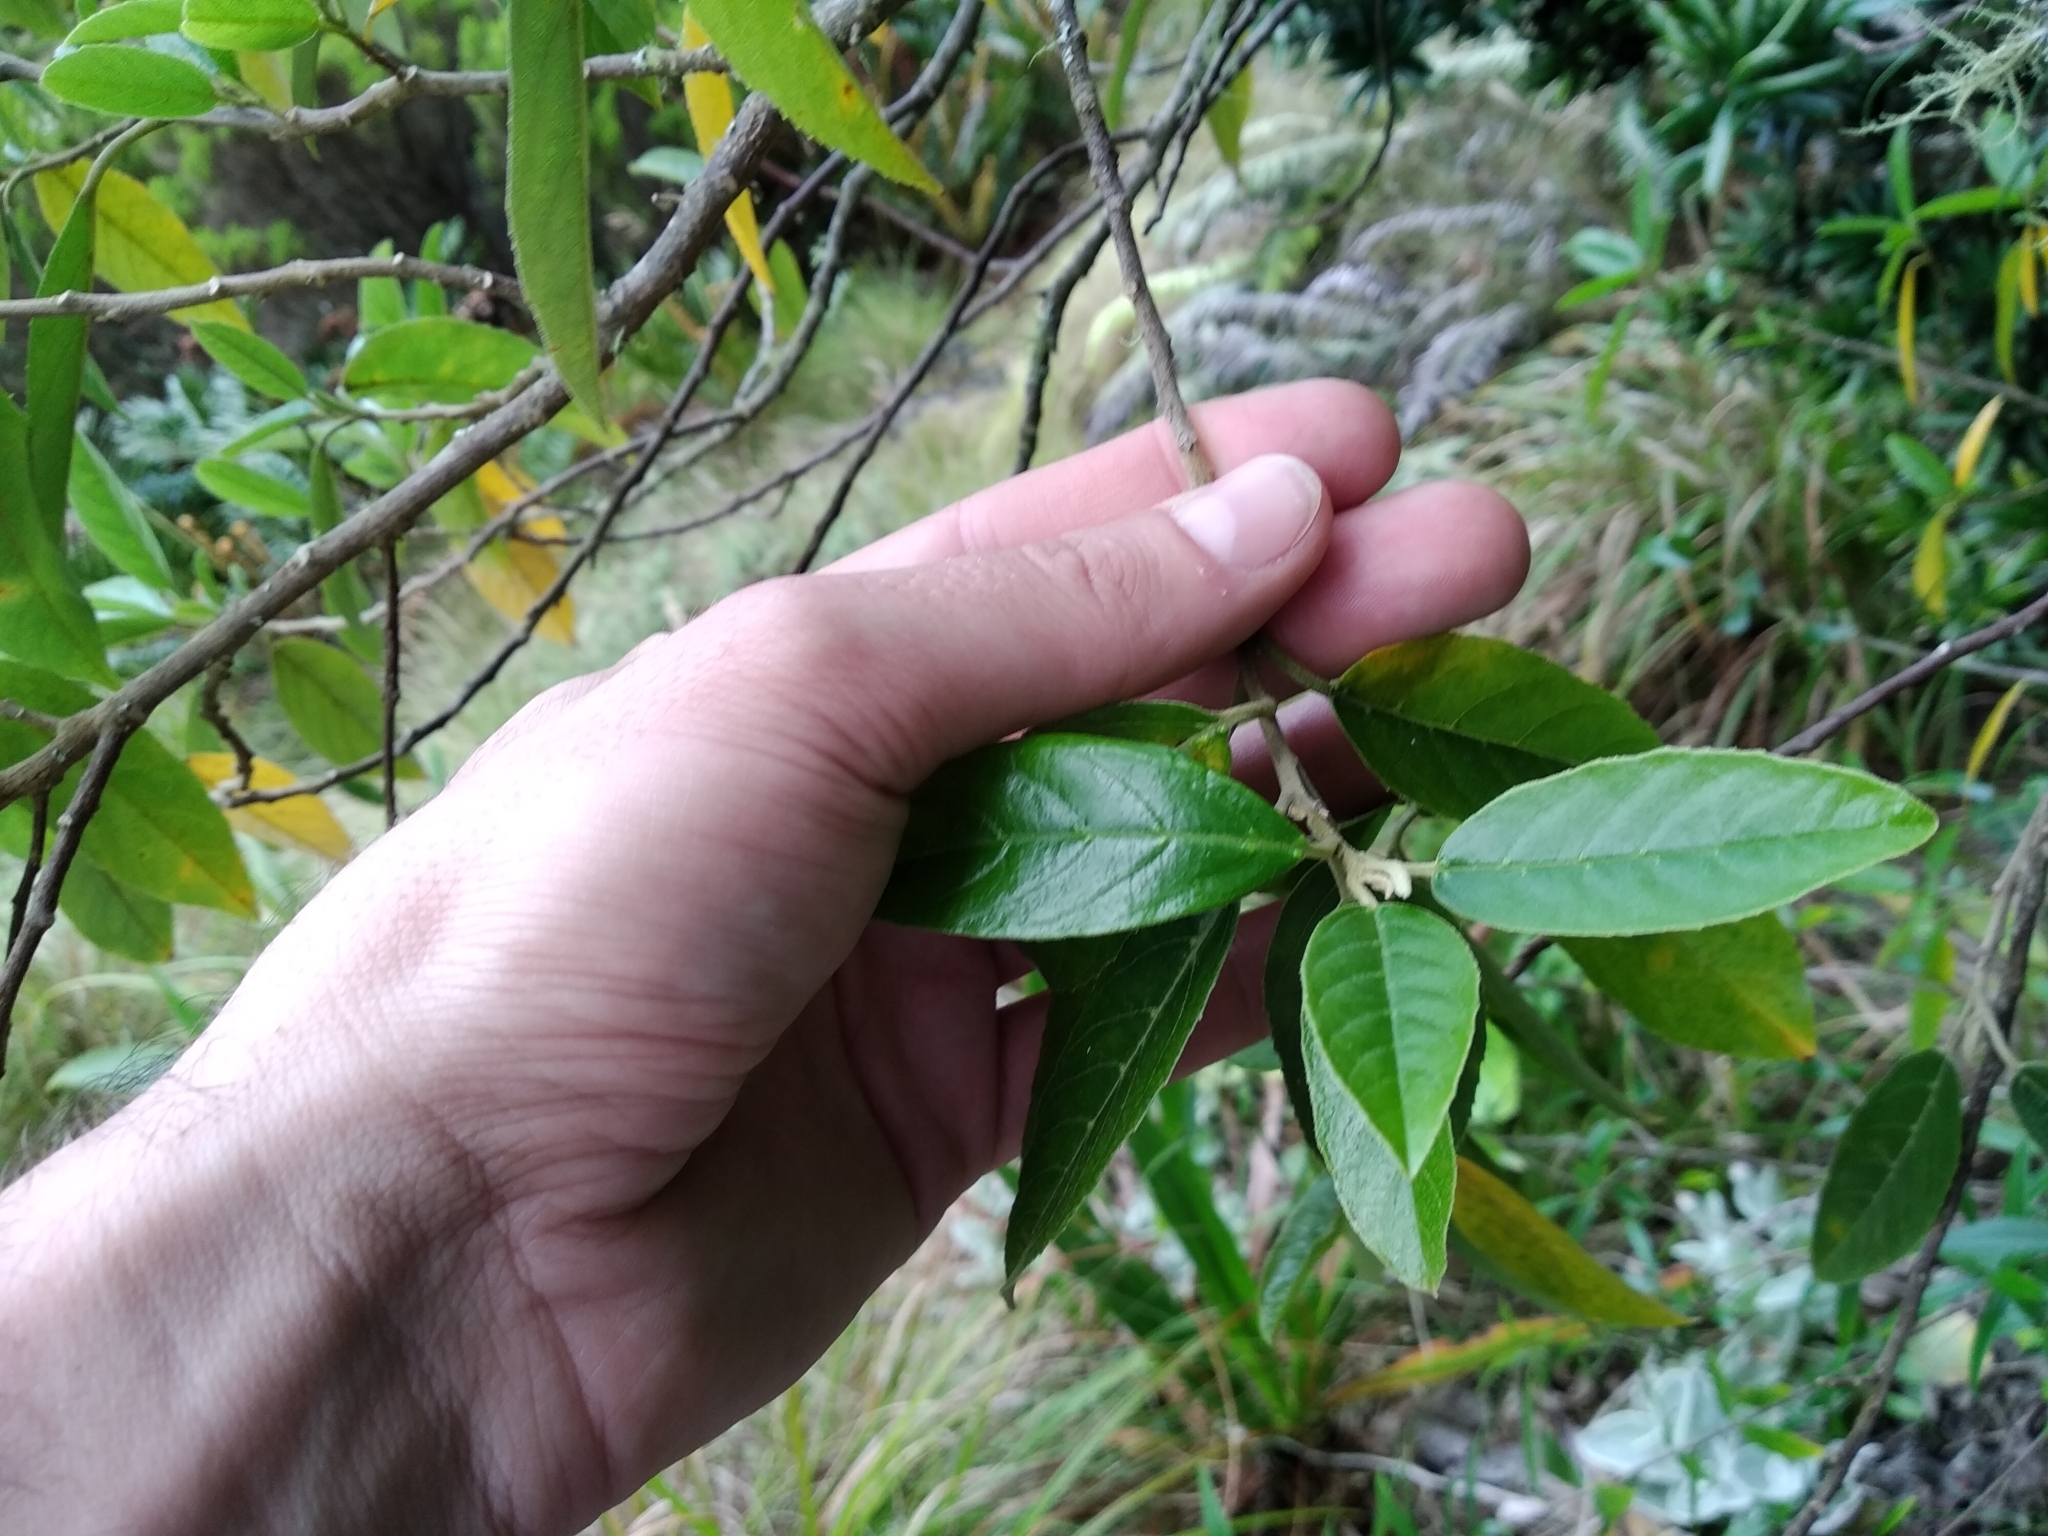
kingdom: Plantae
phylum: Tracheophyta
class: Magnoliopsida
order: Malpighiales
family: Achariaceae
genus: Kiggelaria
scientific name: Kiggelaria africana
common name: Wild peach
